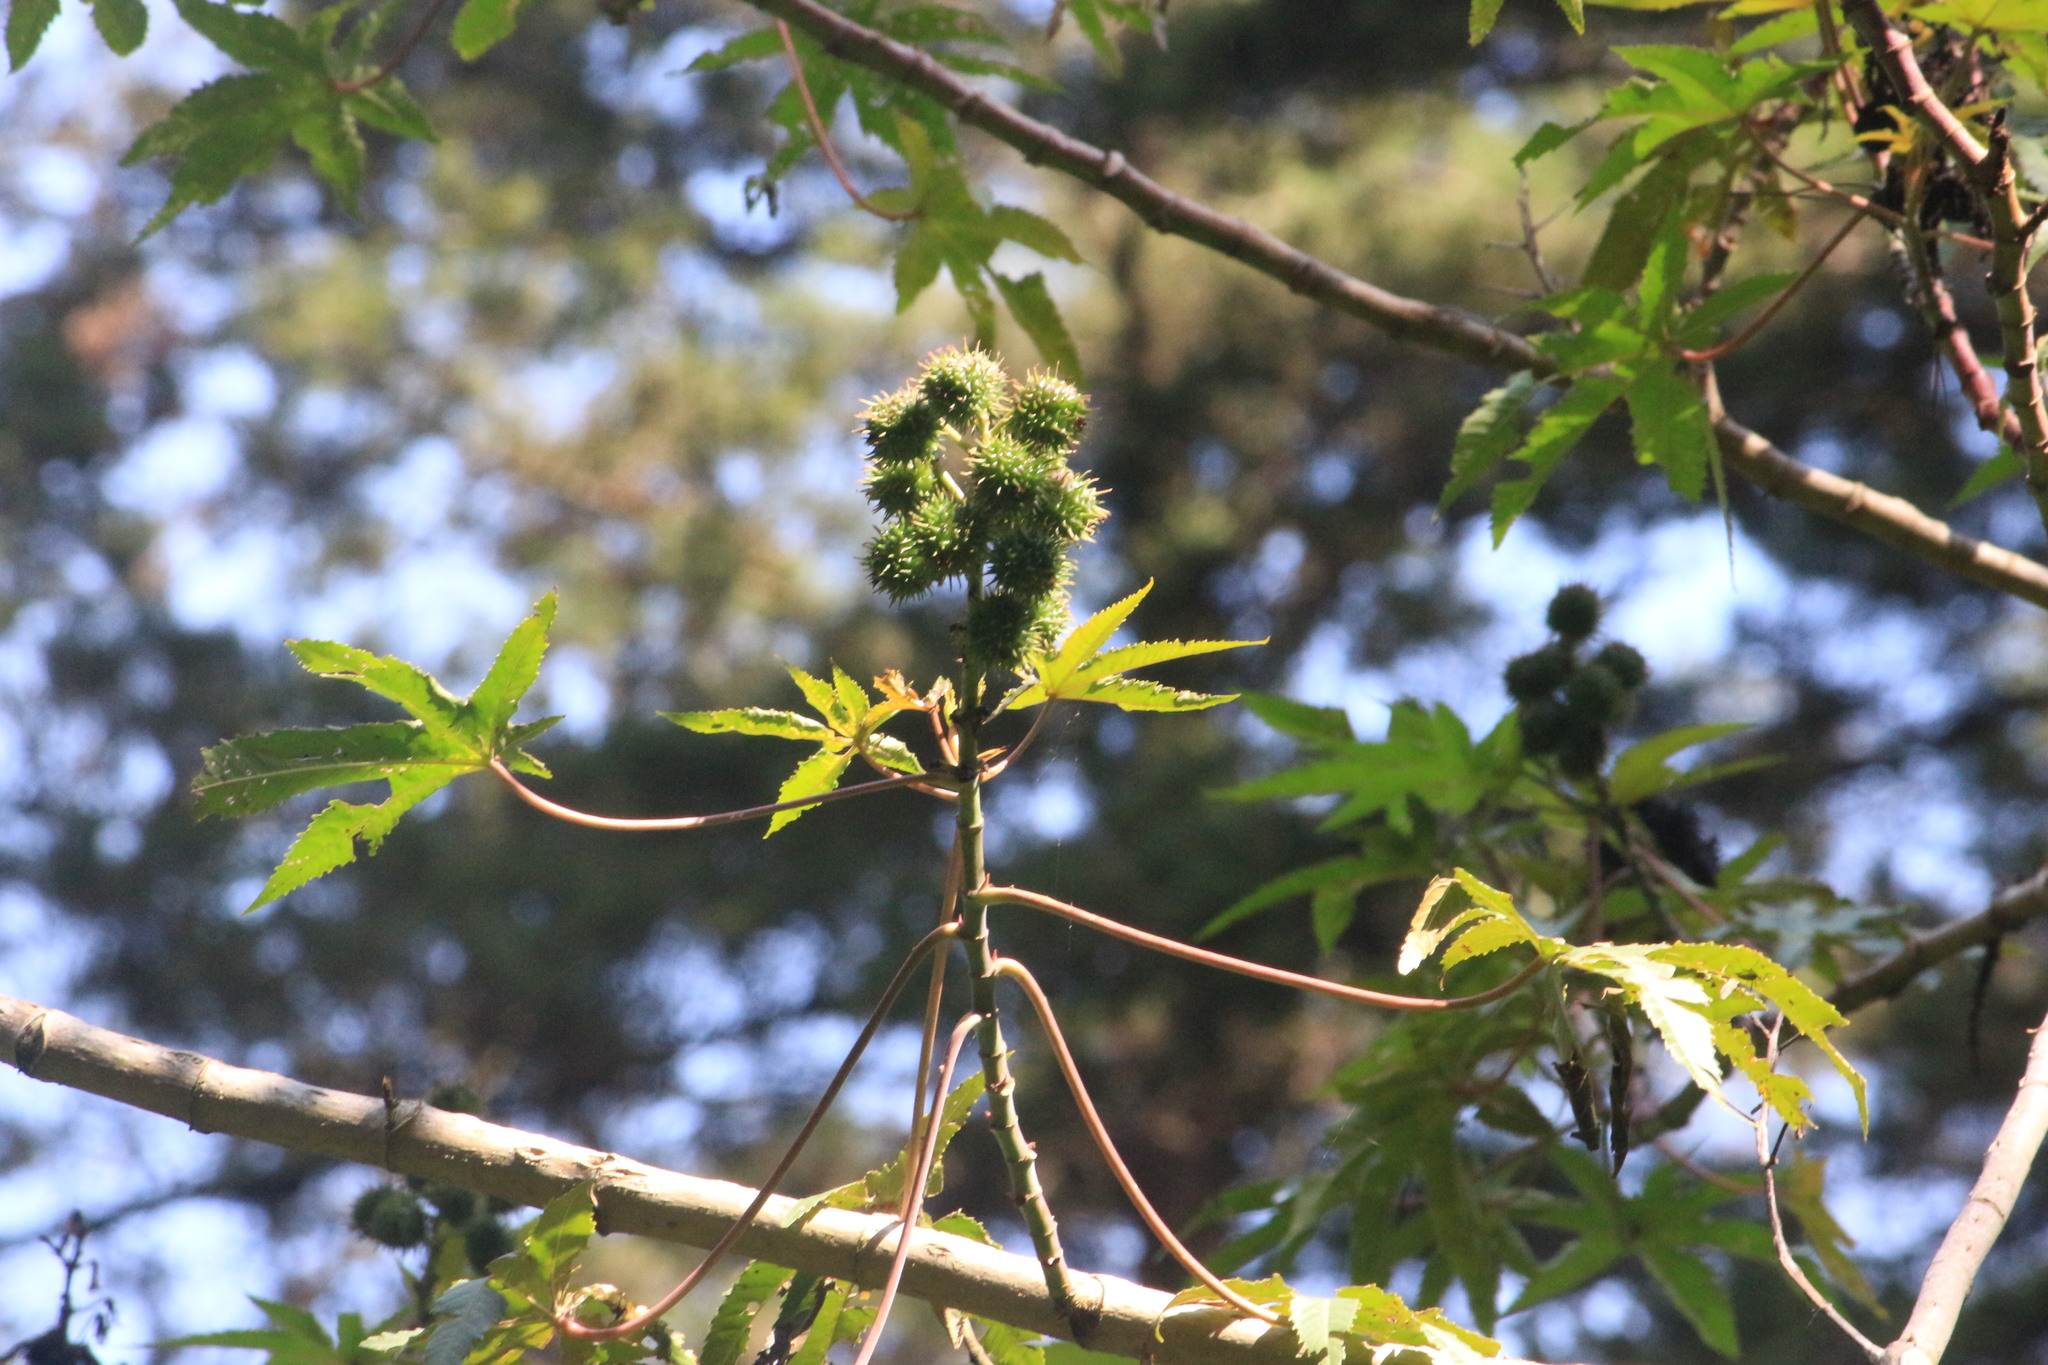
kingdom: Plantae
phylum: Tracheophyta
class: Magnoliopsida
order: Malpighiales
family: Euphorbiaceae
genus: Ricinus
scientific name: Ricinus communis
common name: Castor-oil-plant
